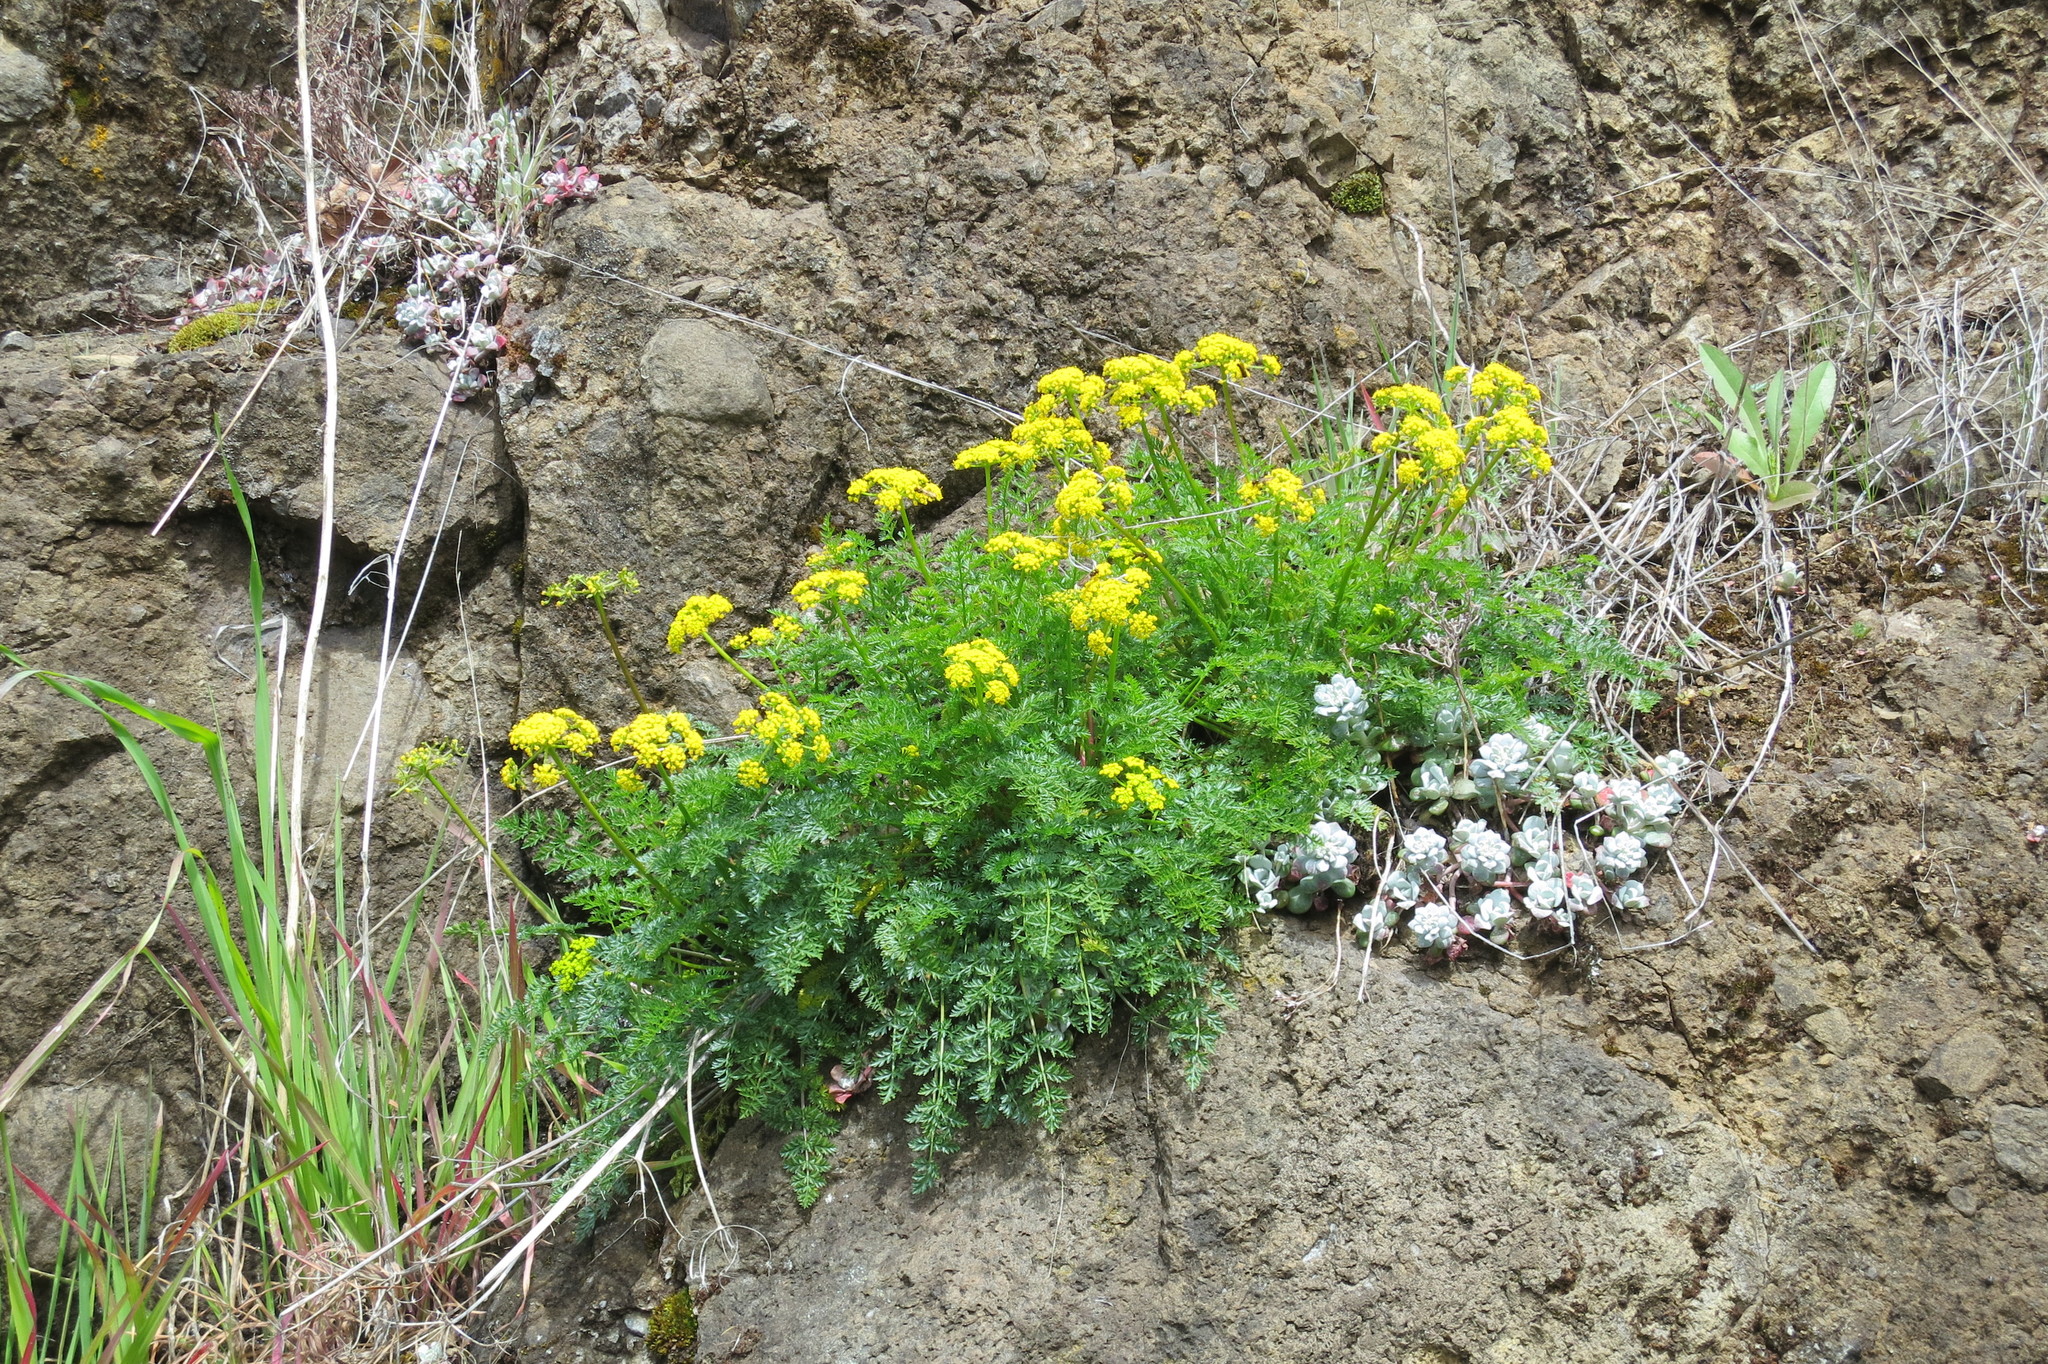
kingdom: Plantae
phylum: Tracheophyta
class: Magnoliopsida
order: Apiales
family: Apiaceae
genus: Lomatium
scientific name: Lomatium hallii
